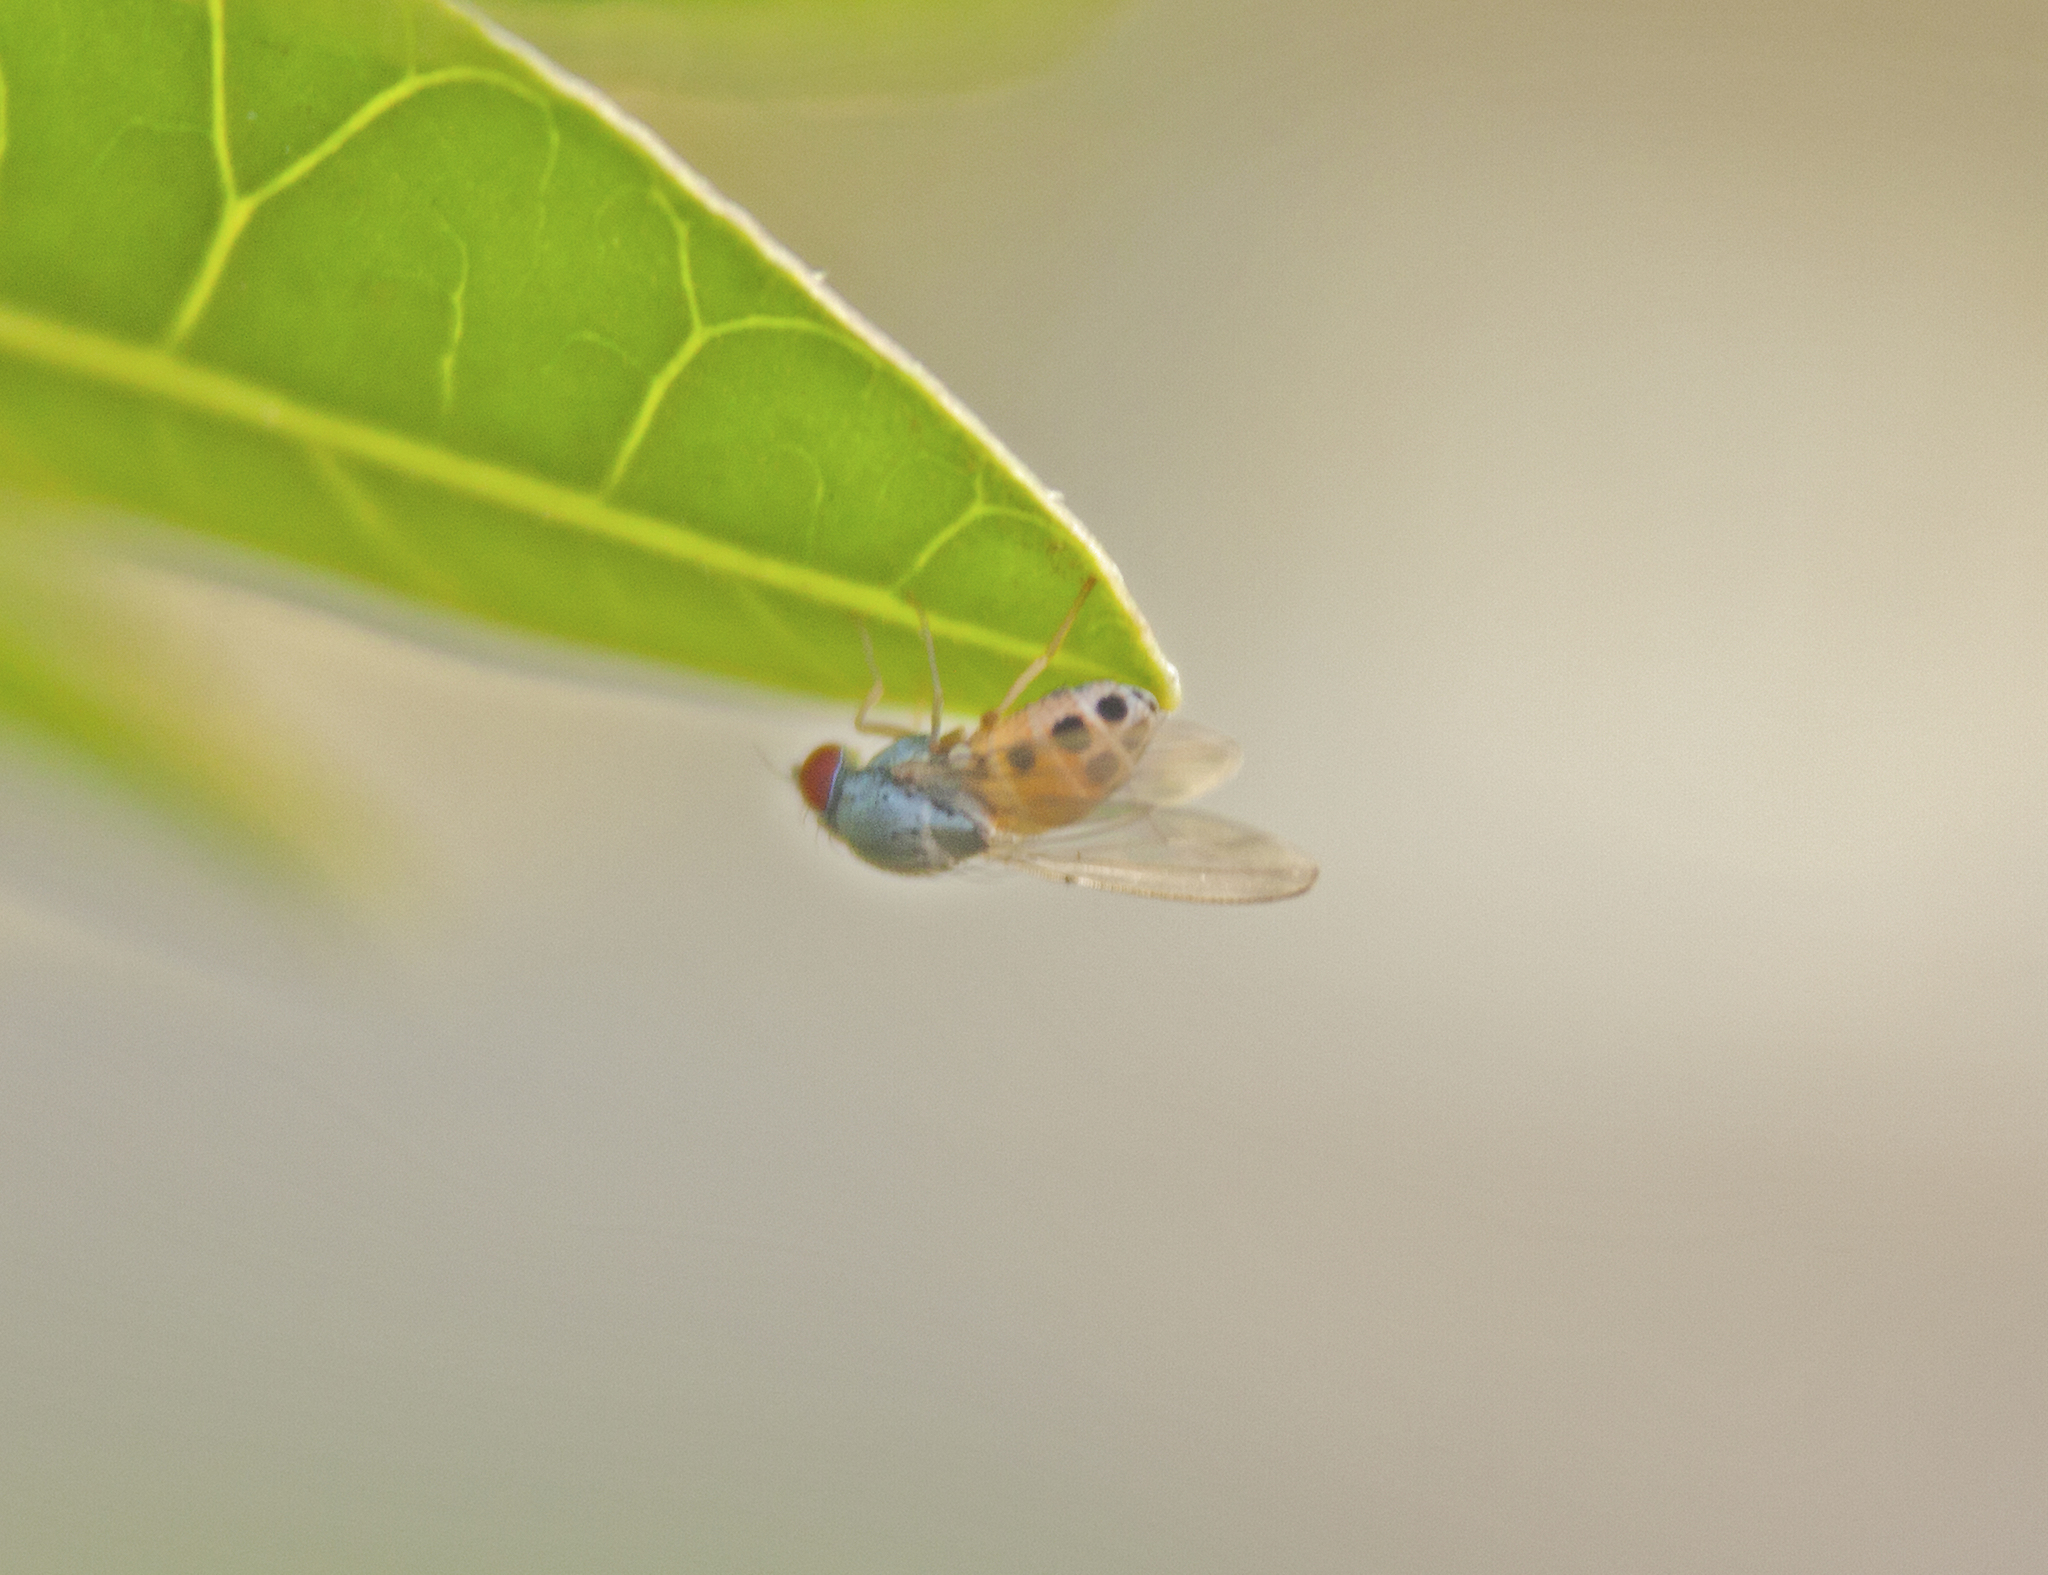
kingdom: Animalia
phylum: Arthropoda
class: Insecta
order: Diptera
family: Drosophilidae
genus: Luzonimyia
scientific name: Luzonimyia cineracea
